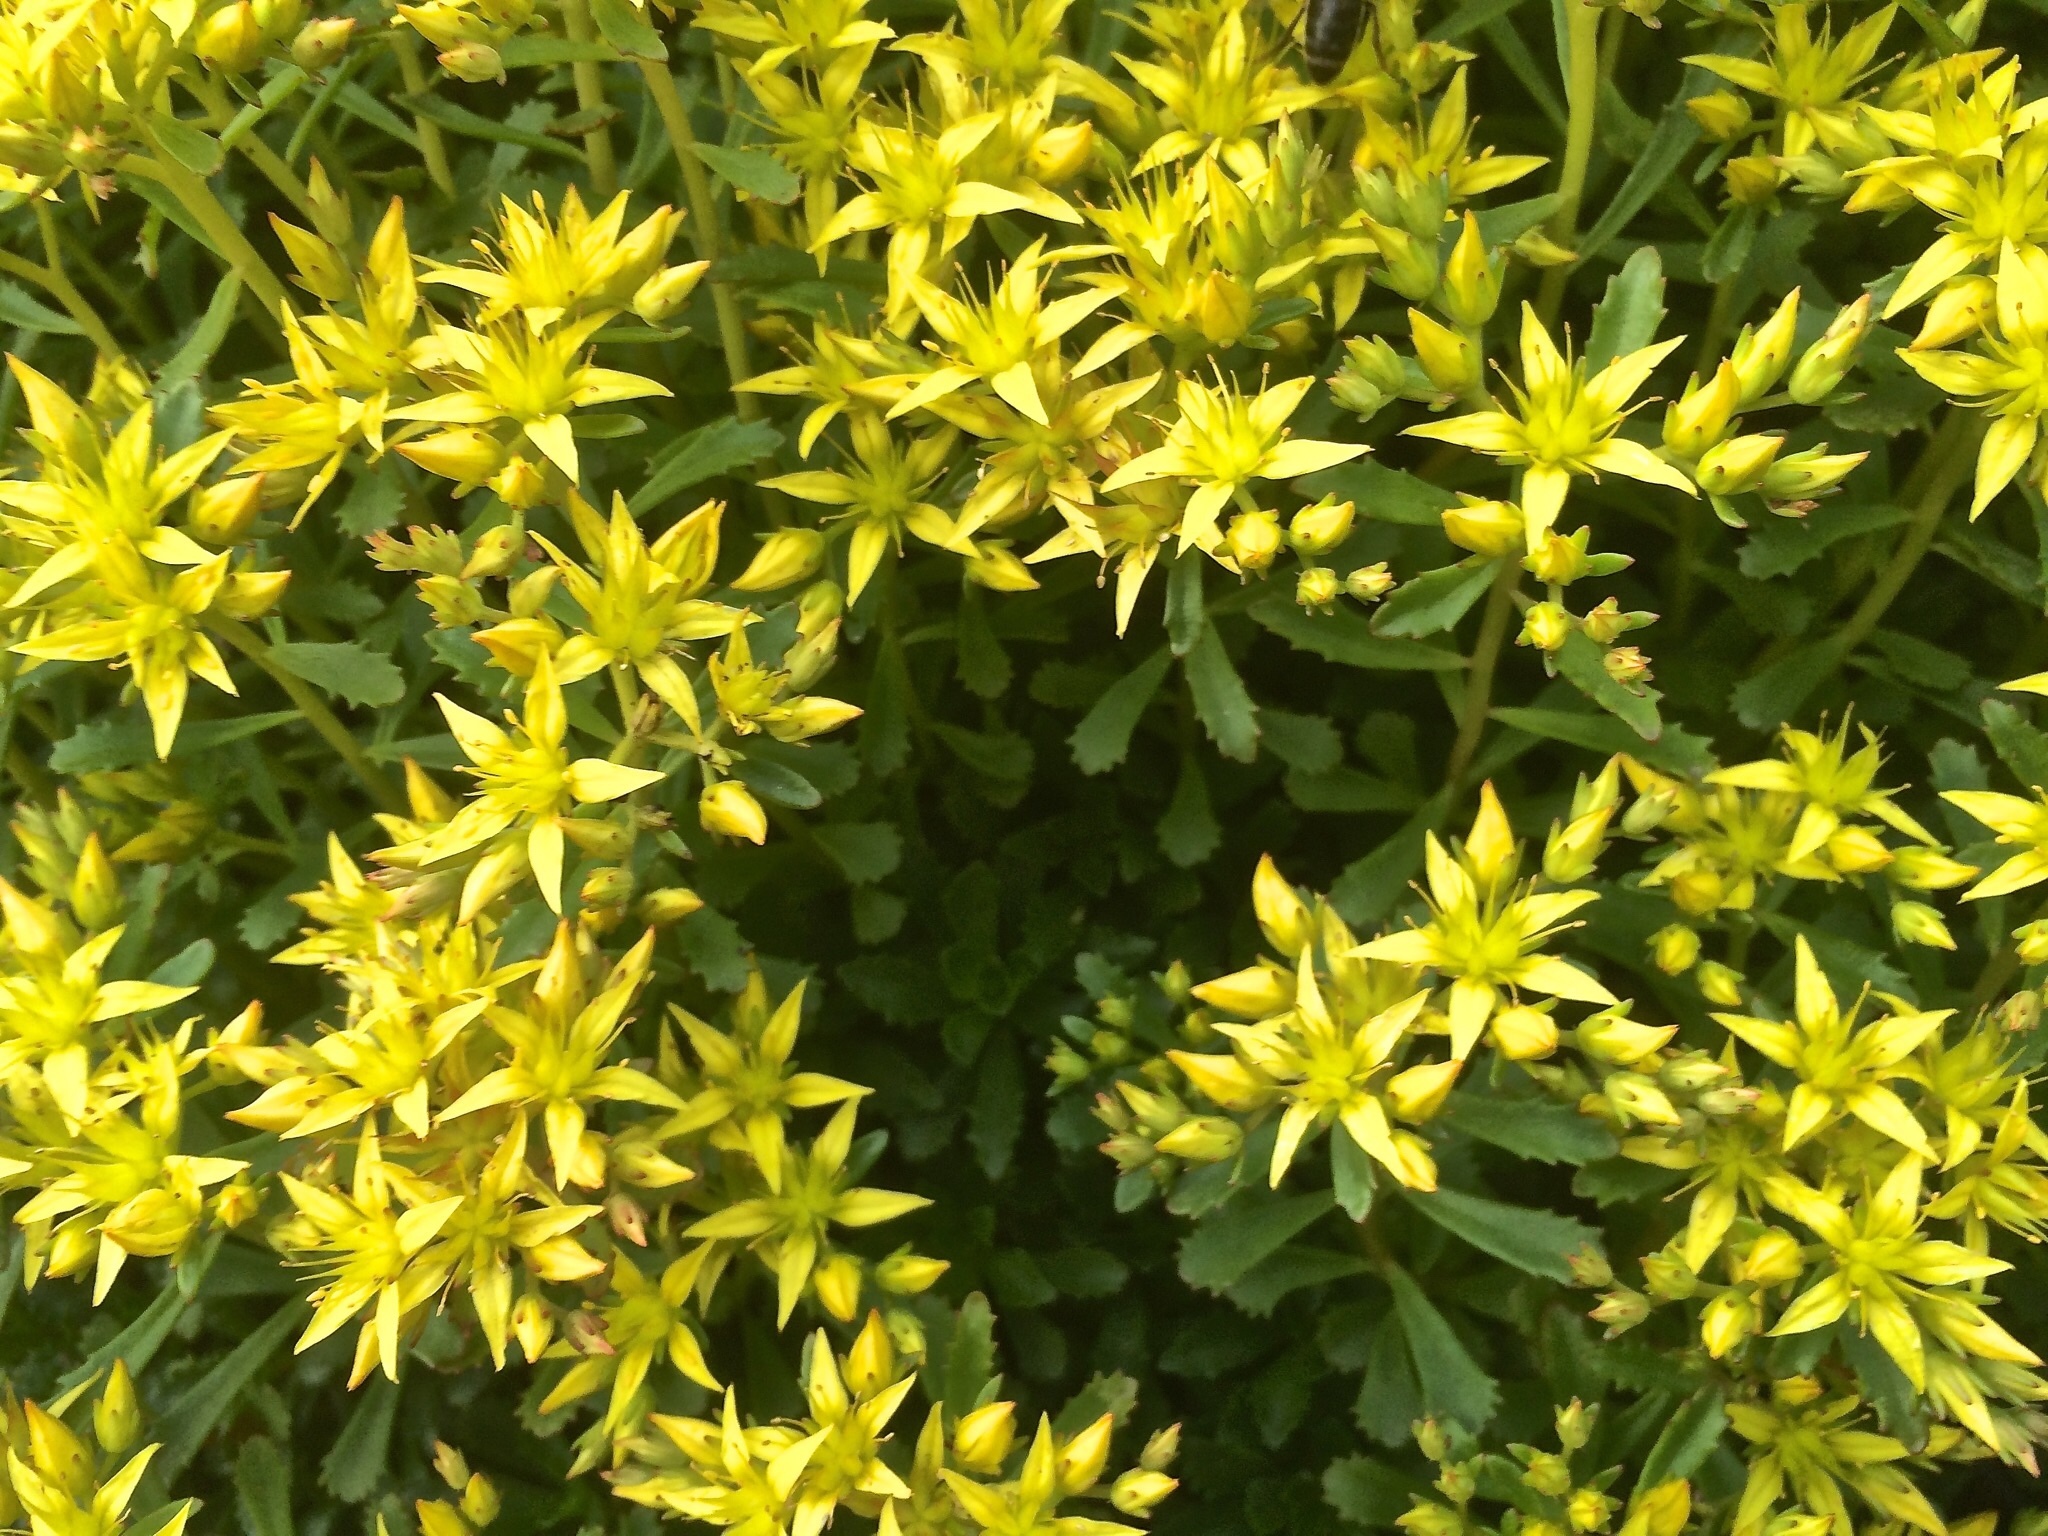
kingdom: Plantae
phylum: Tracheophyta
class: Magnoliopsida
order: Saxifragales
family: Crassulaceae
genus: Phedimus
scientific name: Phedimus hybridus
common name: Hybrid stonecrop
